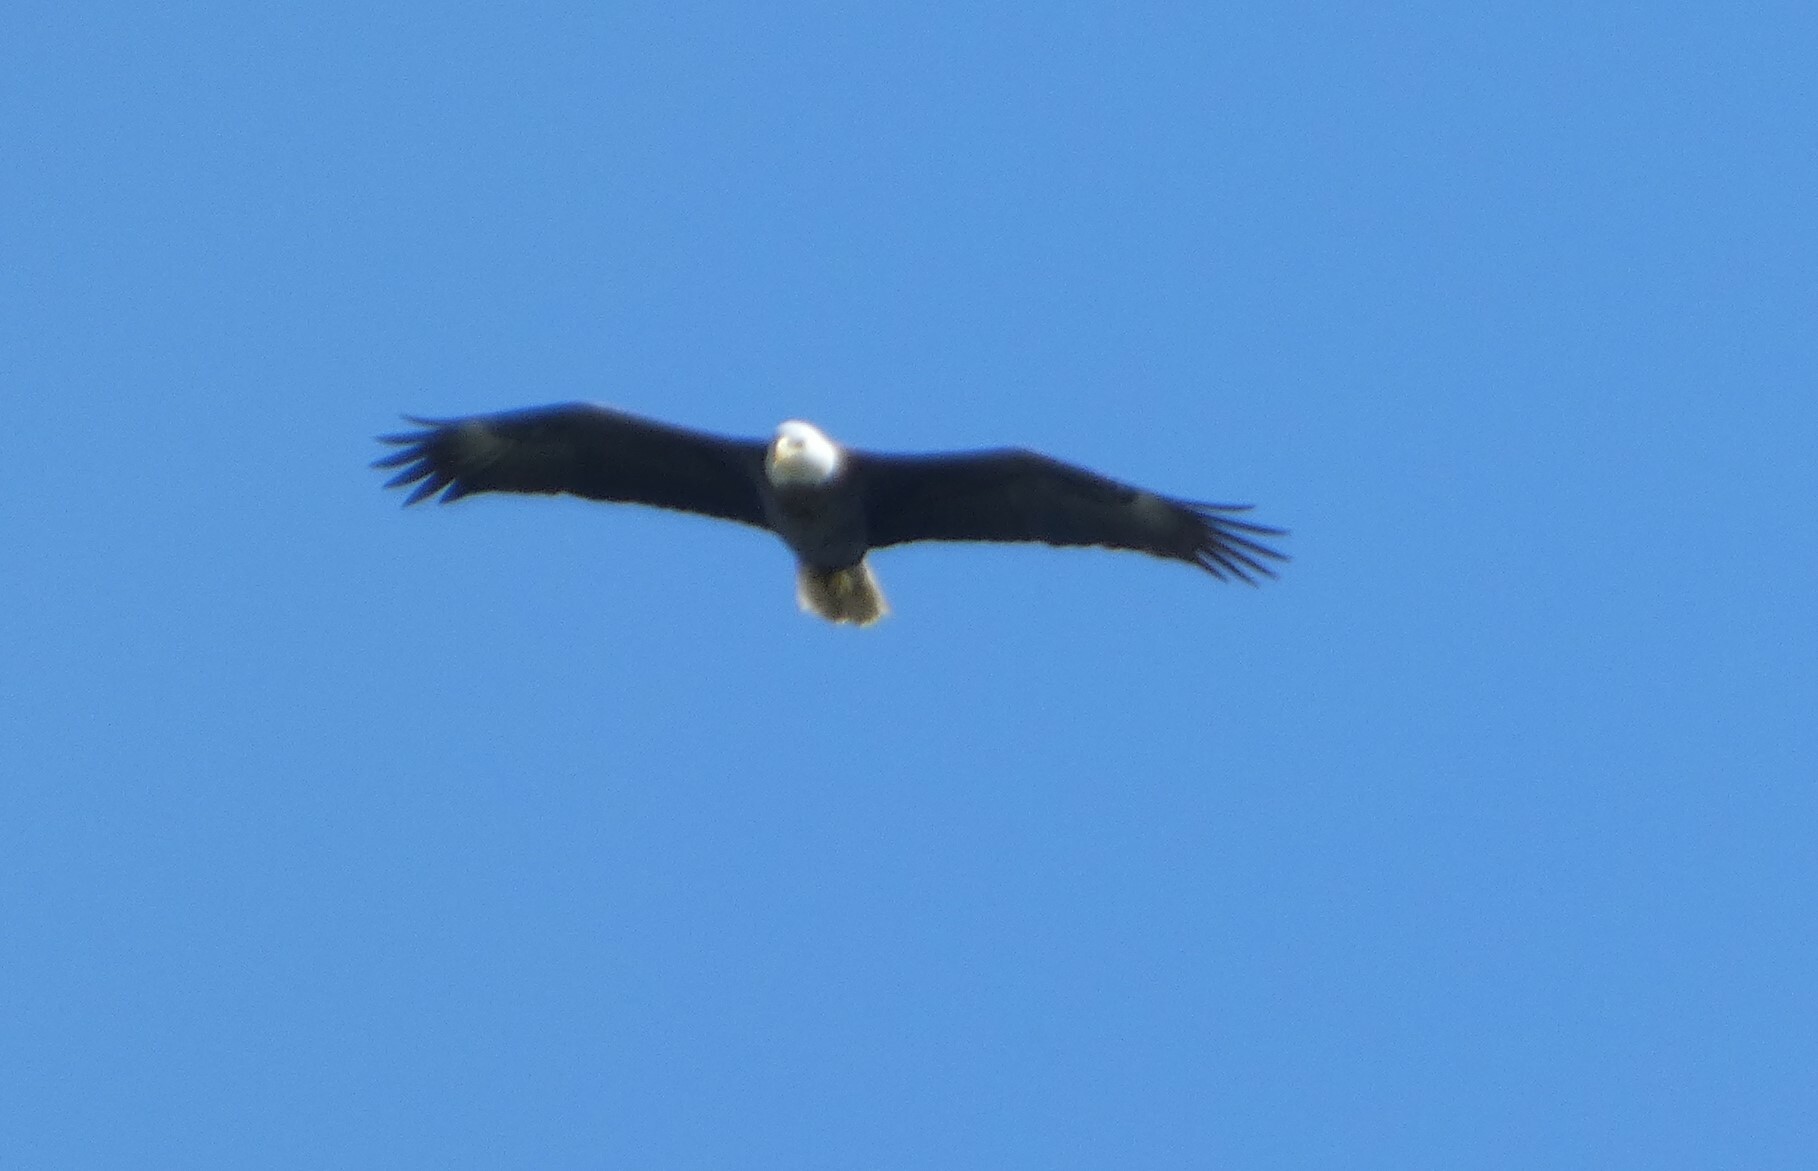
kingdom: Animalia
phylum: Chordata
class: Aves
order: Accipitriformes
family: Accipitridae
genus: Haliaeetus
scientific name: Haliaeetus leucocephalus
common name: Bald eagle
